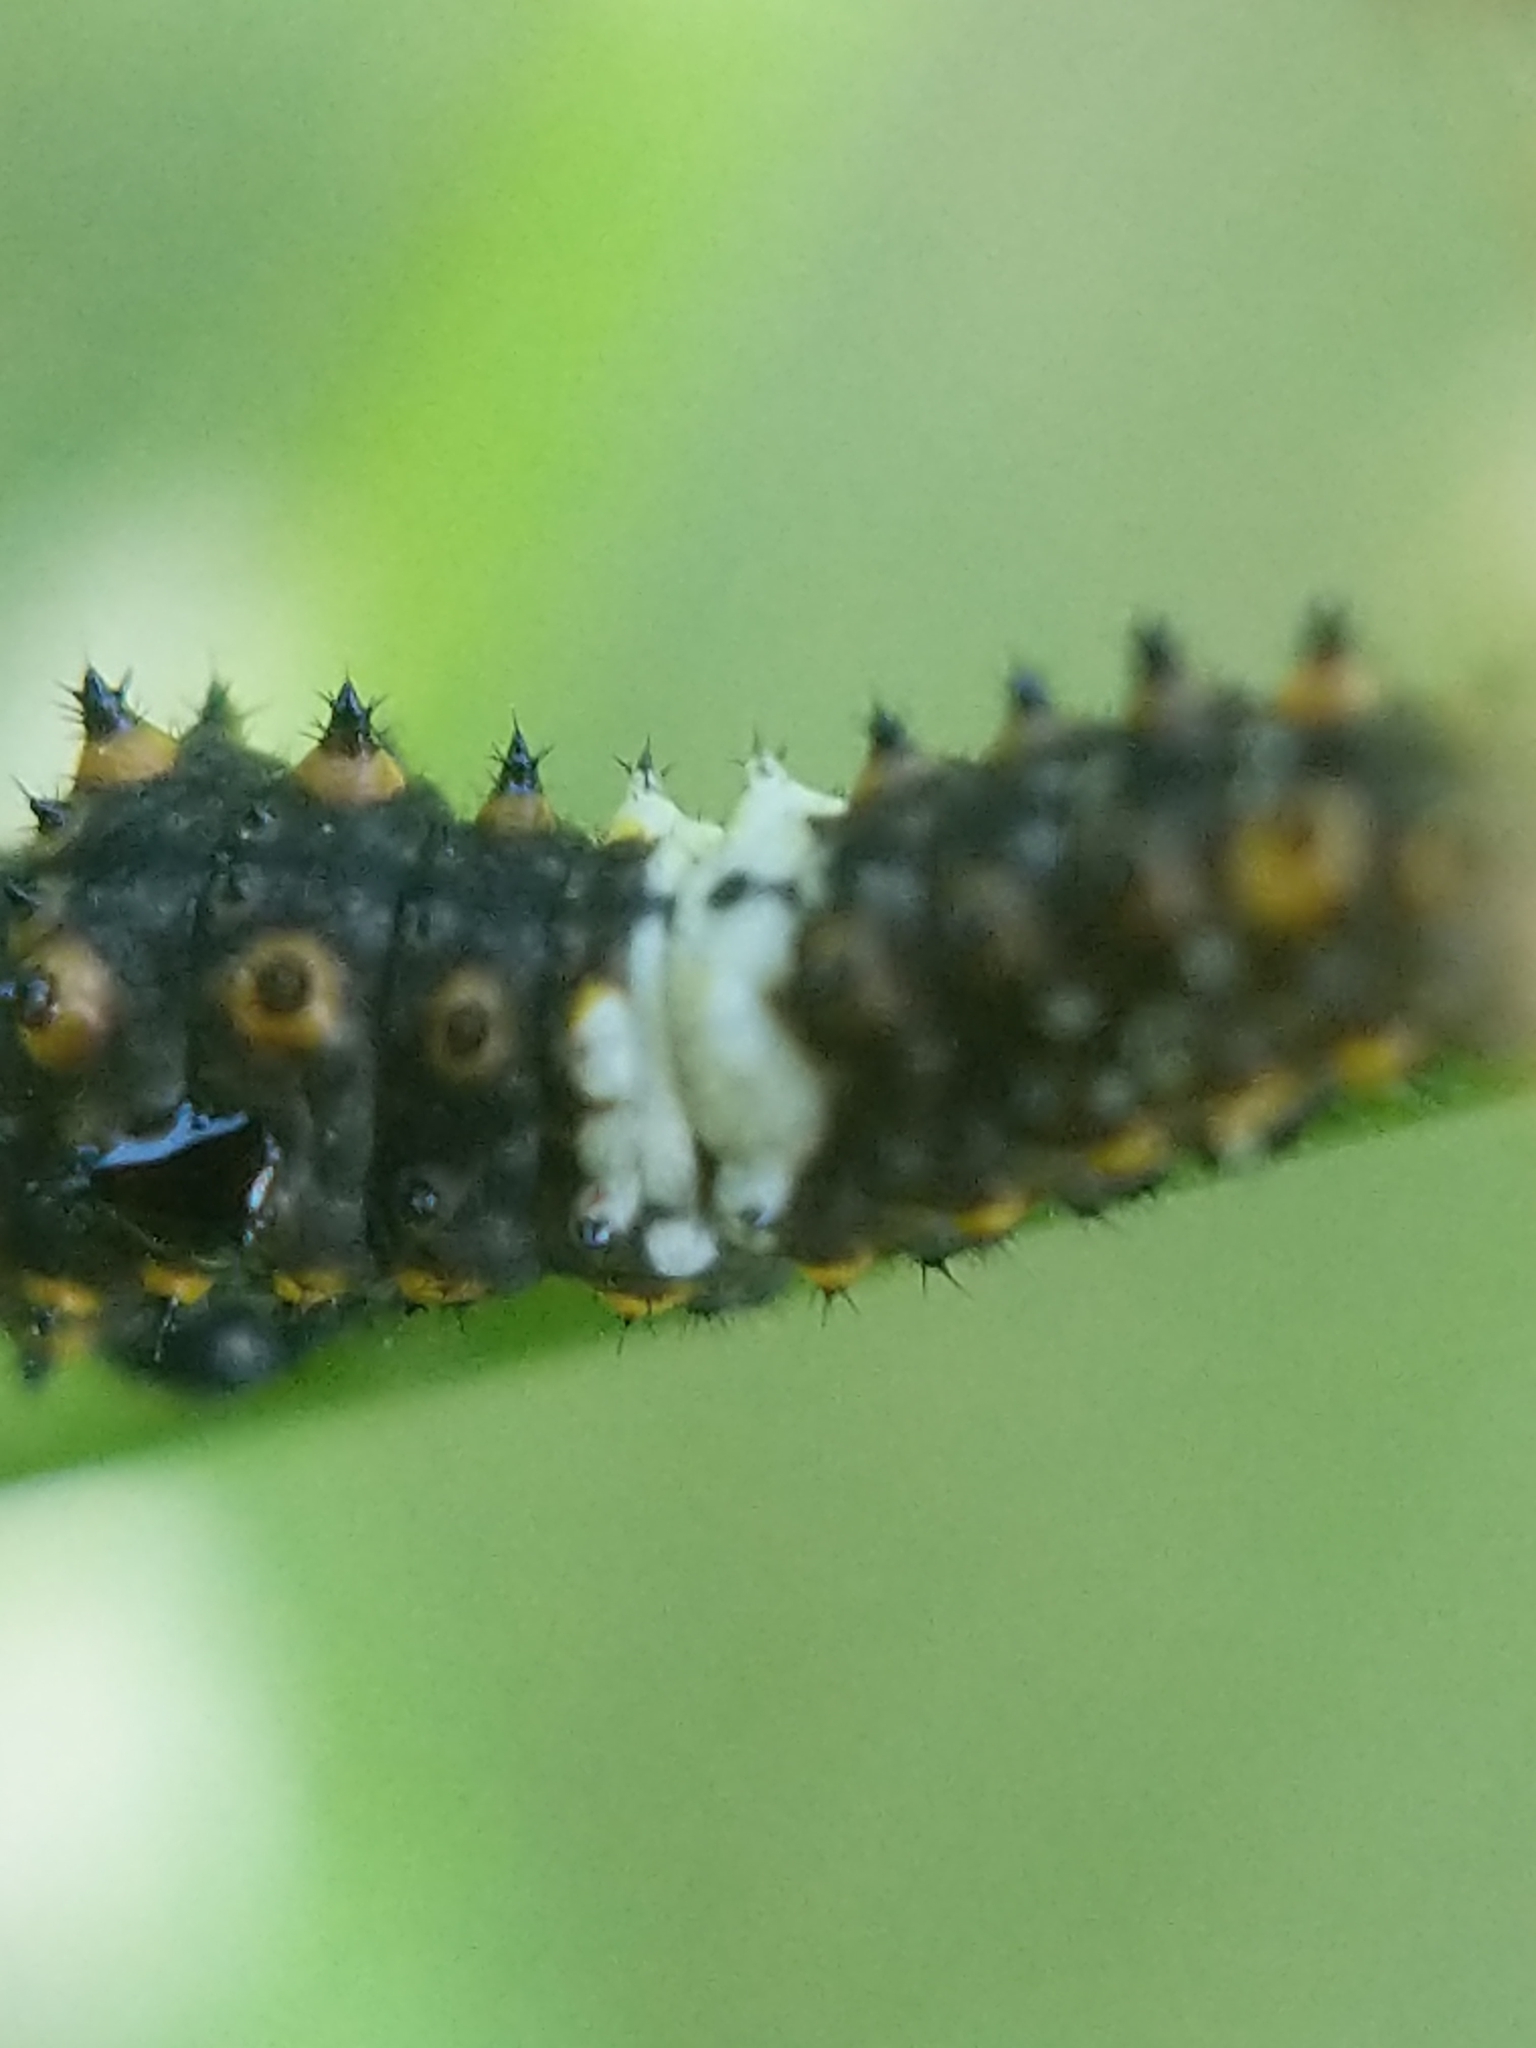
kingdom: Animalia
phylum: Arthropoda
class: Insecta
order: Lepidoptera
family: Papilionidae
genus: Papilio
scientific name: Papilio polyxenes
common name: Black swallowtail
